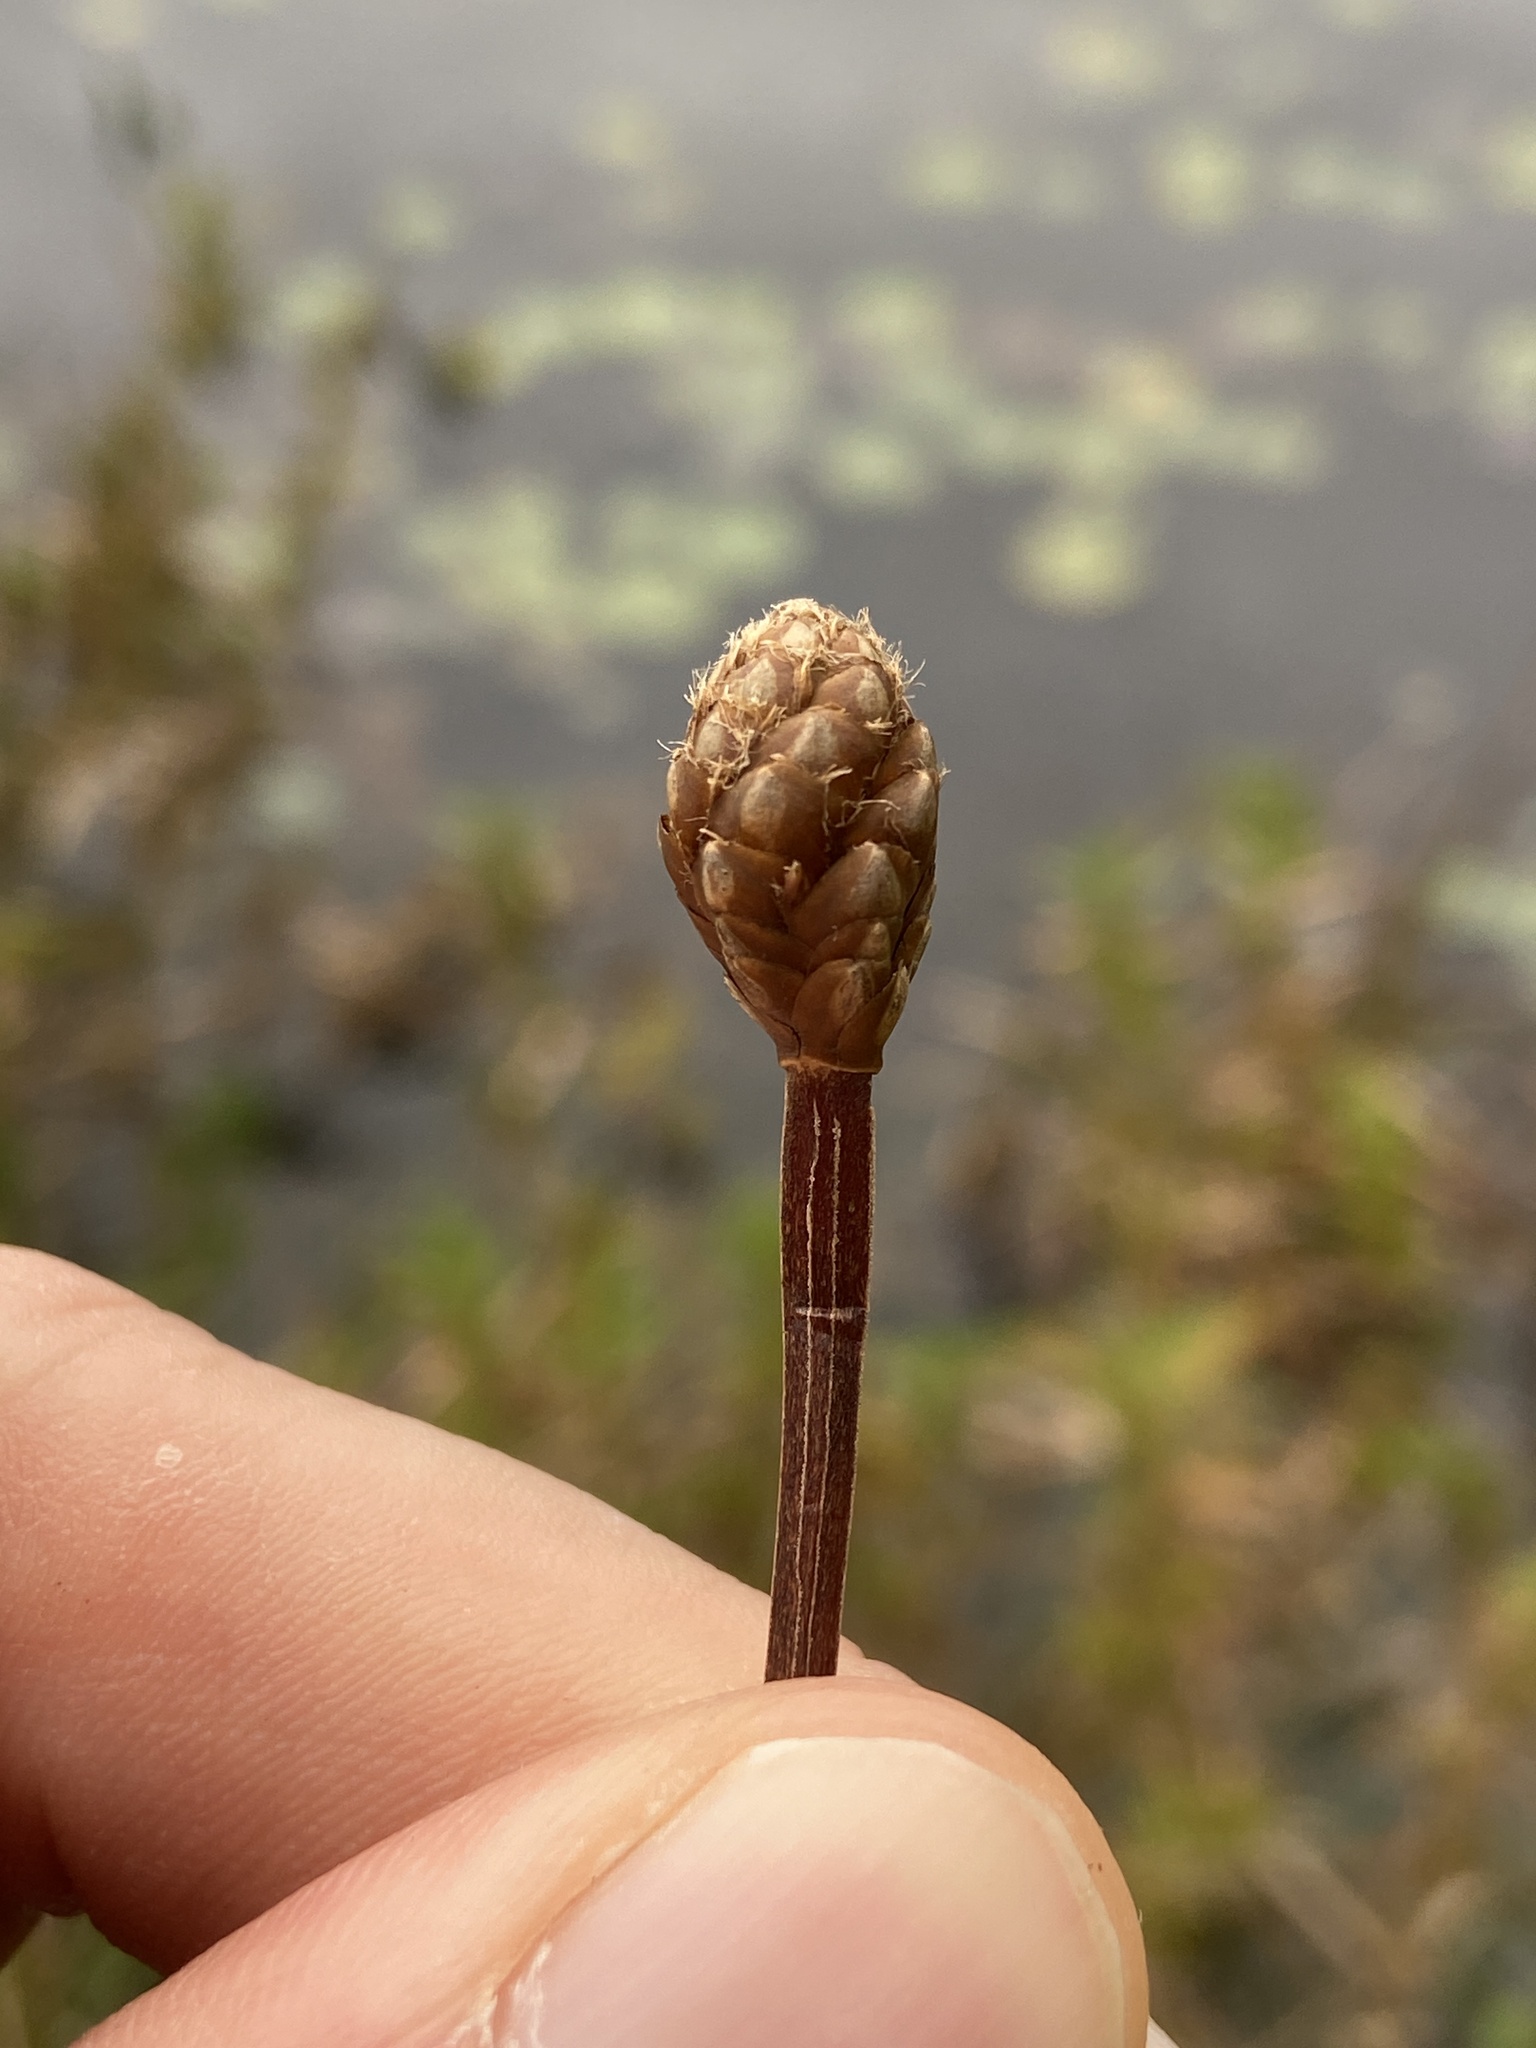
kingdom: Plantae
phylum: Tracheophyta
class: Liliopsida
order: Poales
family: Xyridaceae
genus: Xyris
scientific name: Xyris fimbriata
